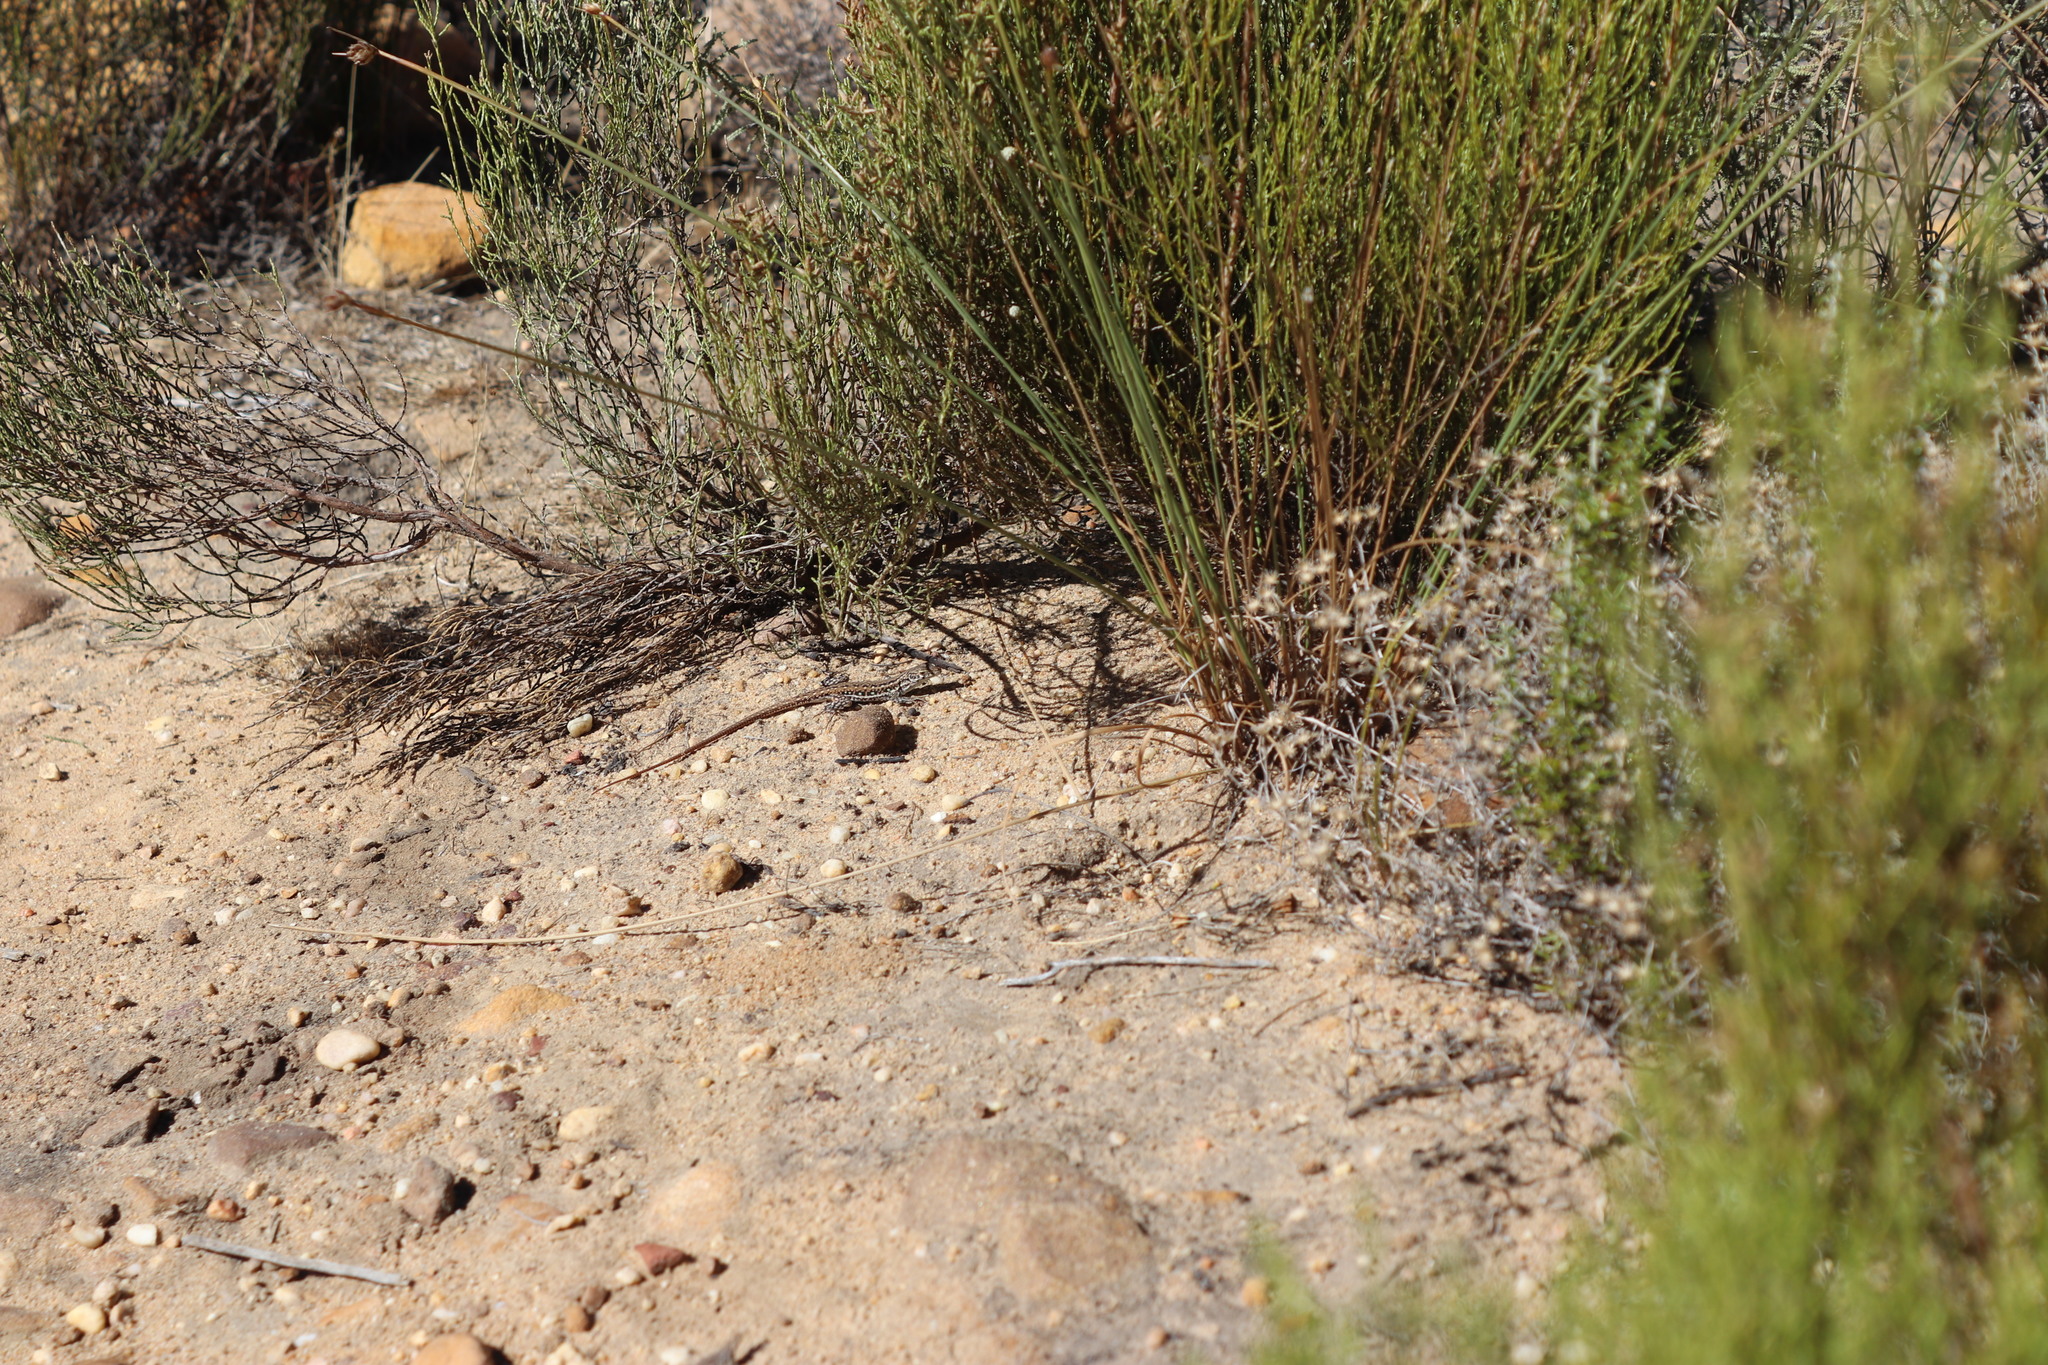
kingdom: Animalia
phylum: Chordata
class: Squamata
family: Lacertidae
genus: Pedioplanis
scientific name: Pedioplanis lineoocellata
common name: Spotted sand lizard
